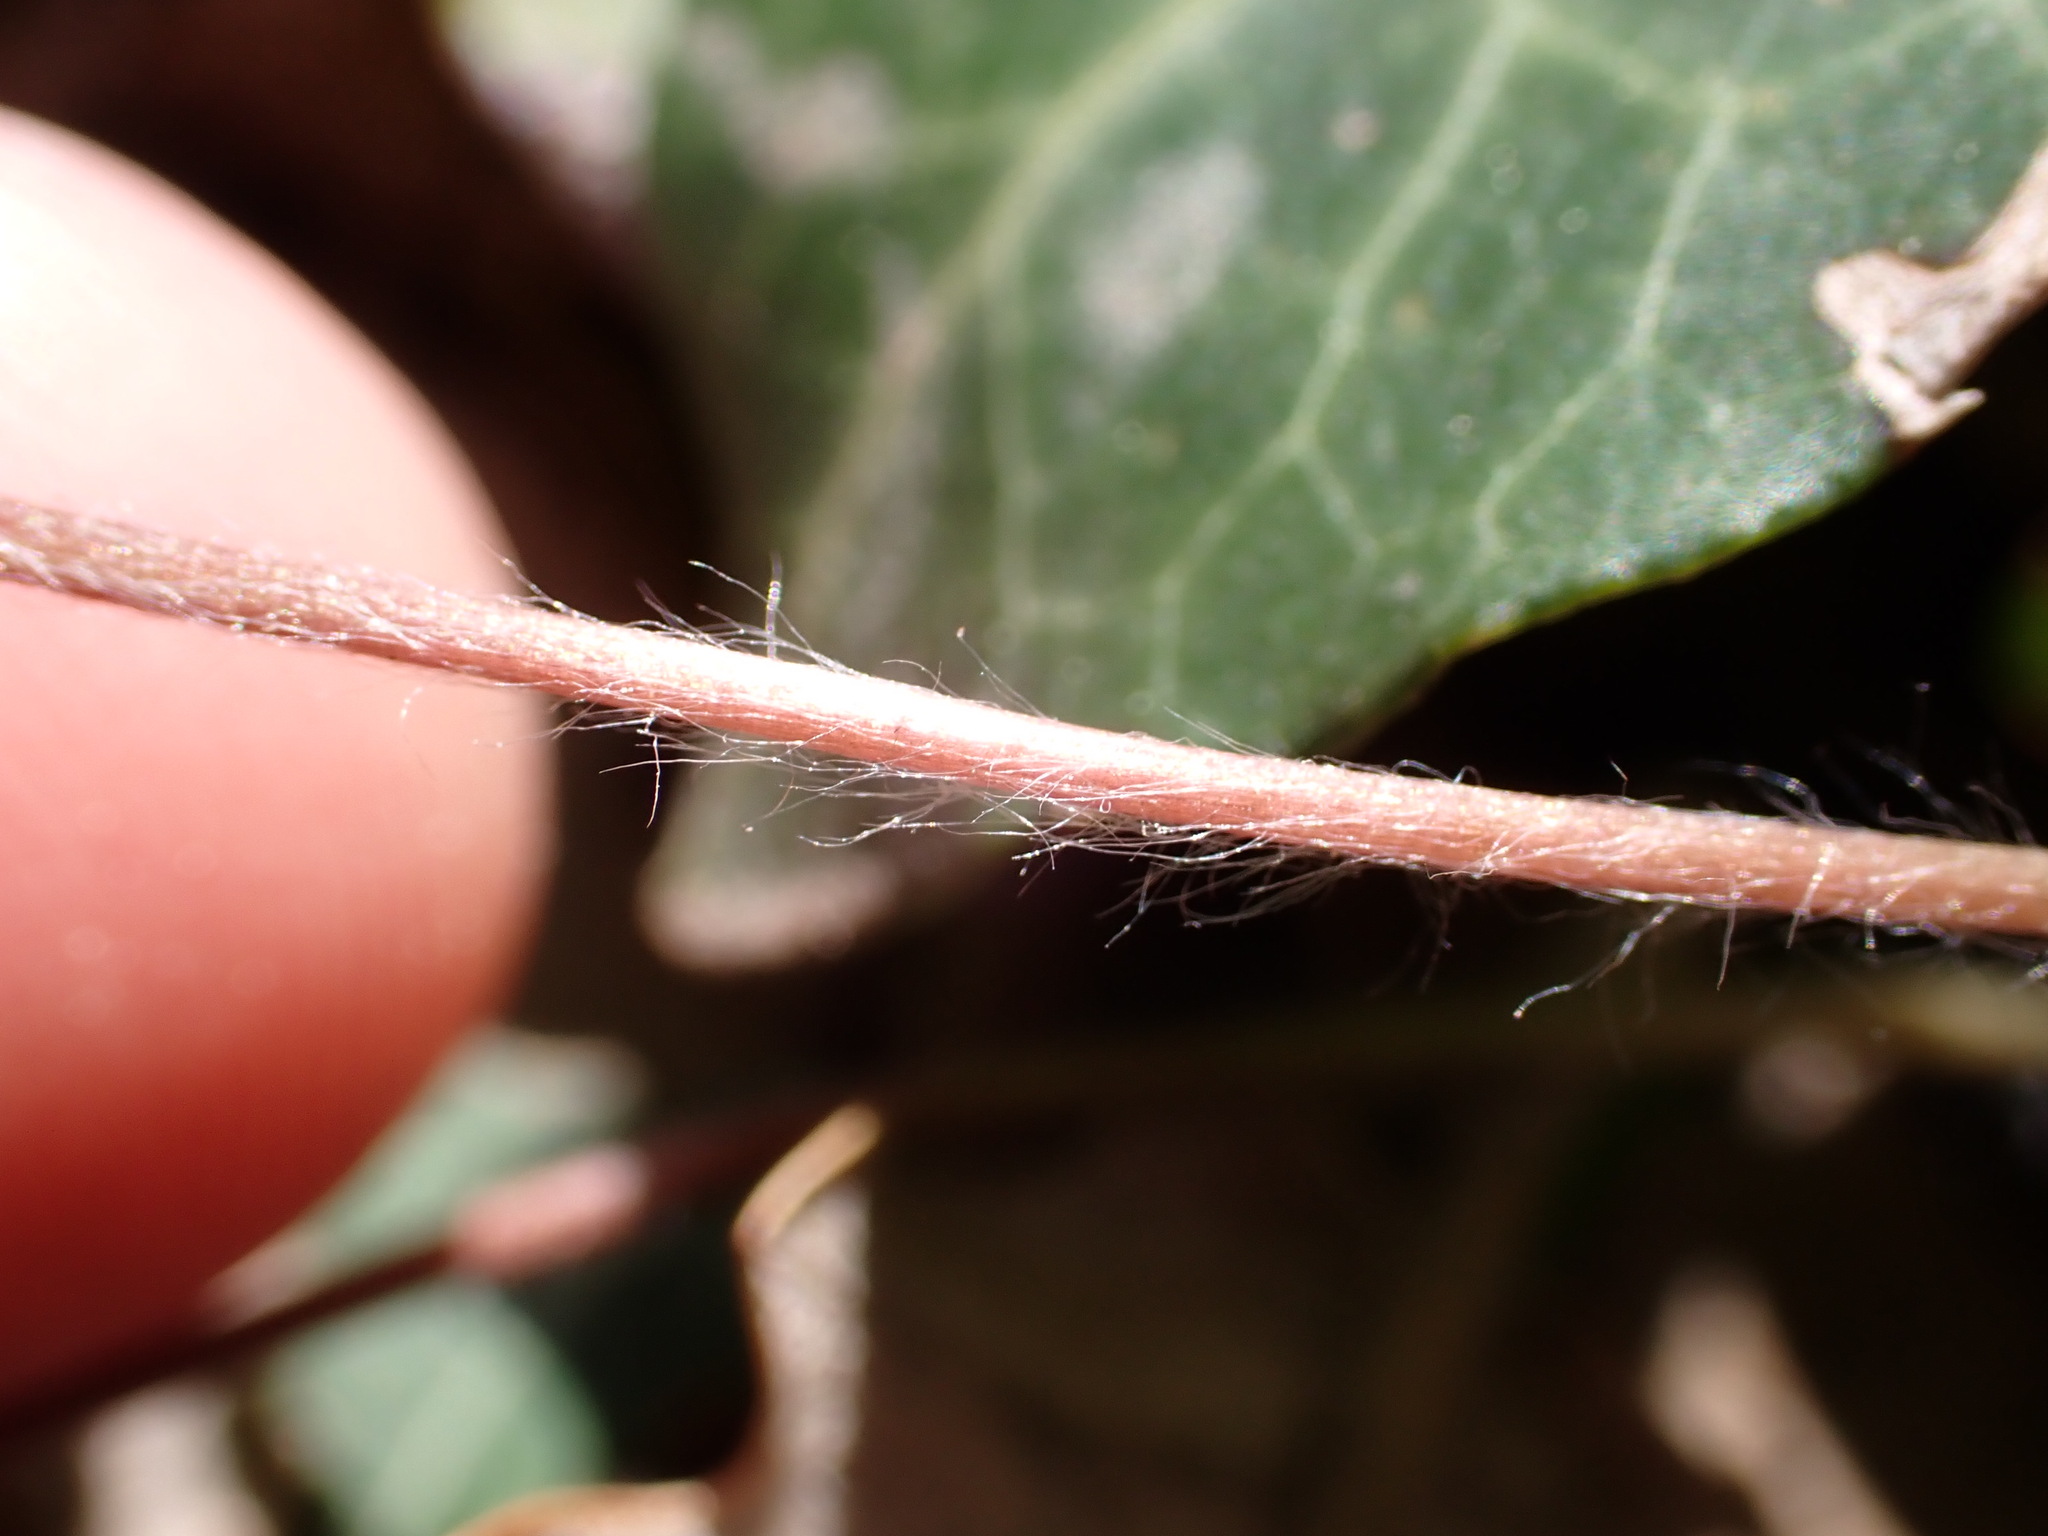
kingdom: Plantae
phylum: Tracheophyta
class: Magnoliopsida
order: Ranunculales
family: Ranunculaceae
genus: Hepatica
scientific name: Hepatica nobilis
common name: Liverleaf
